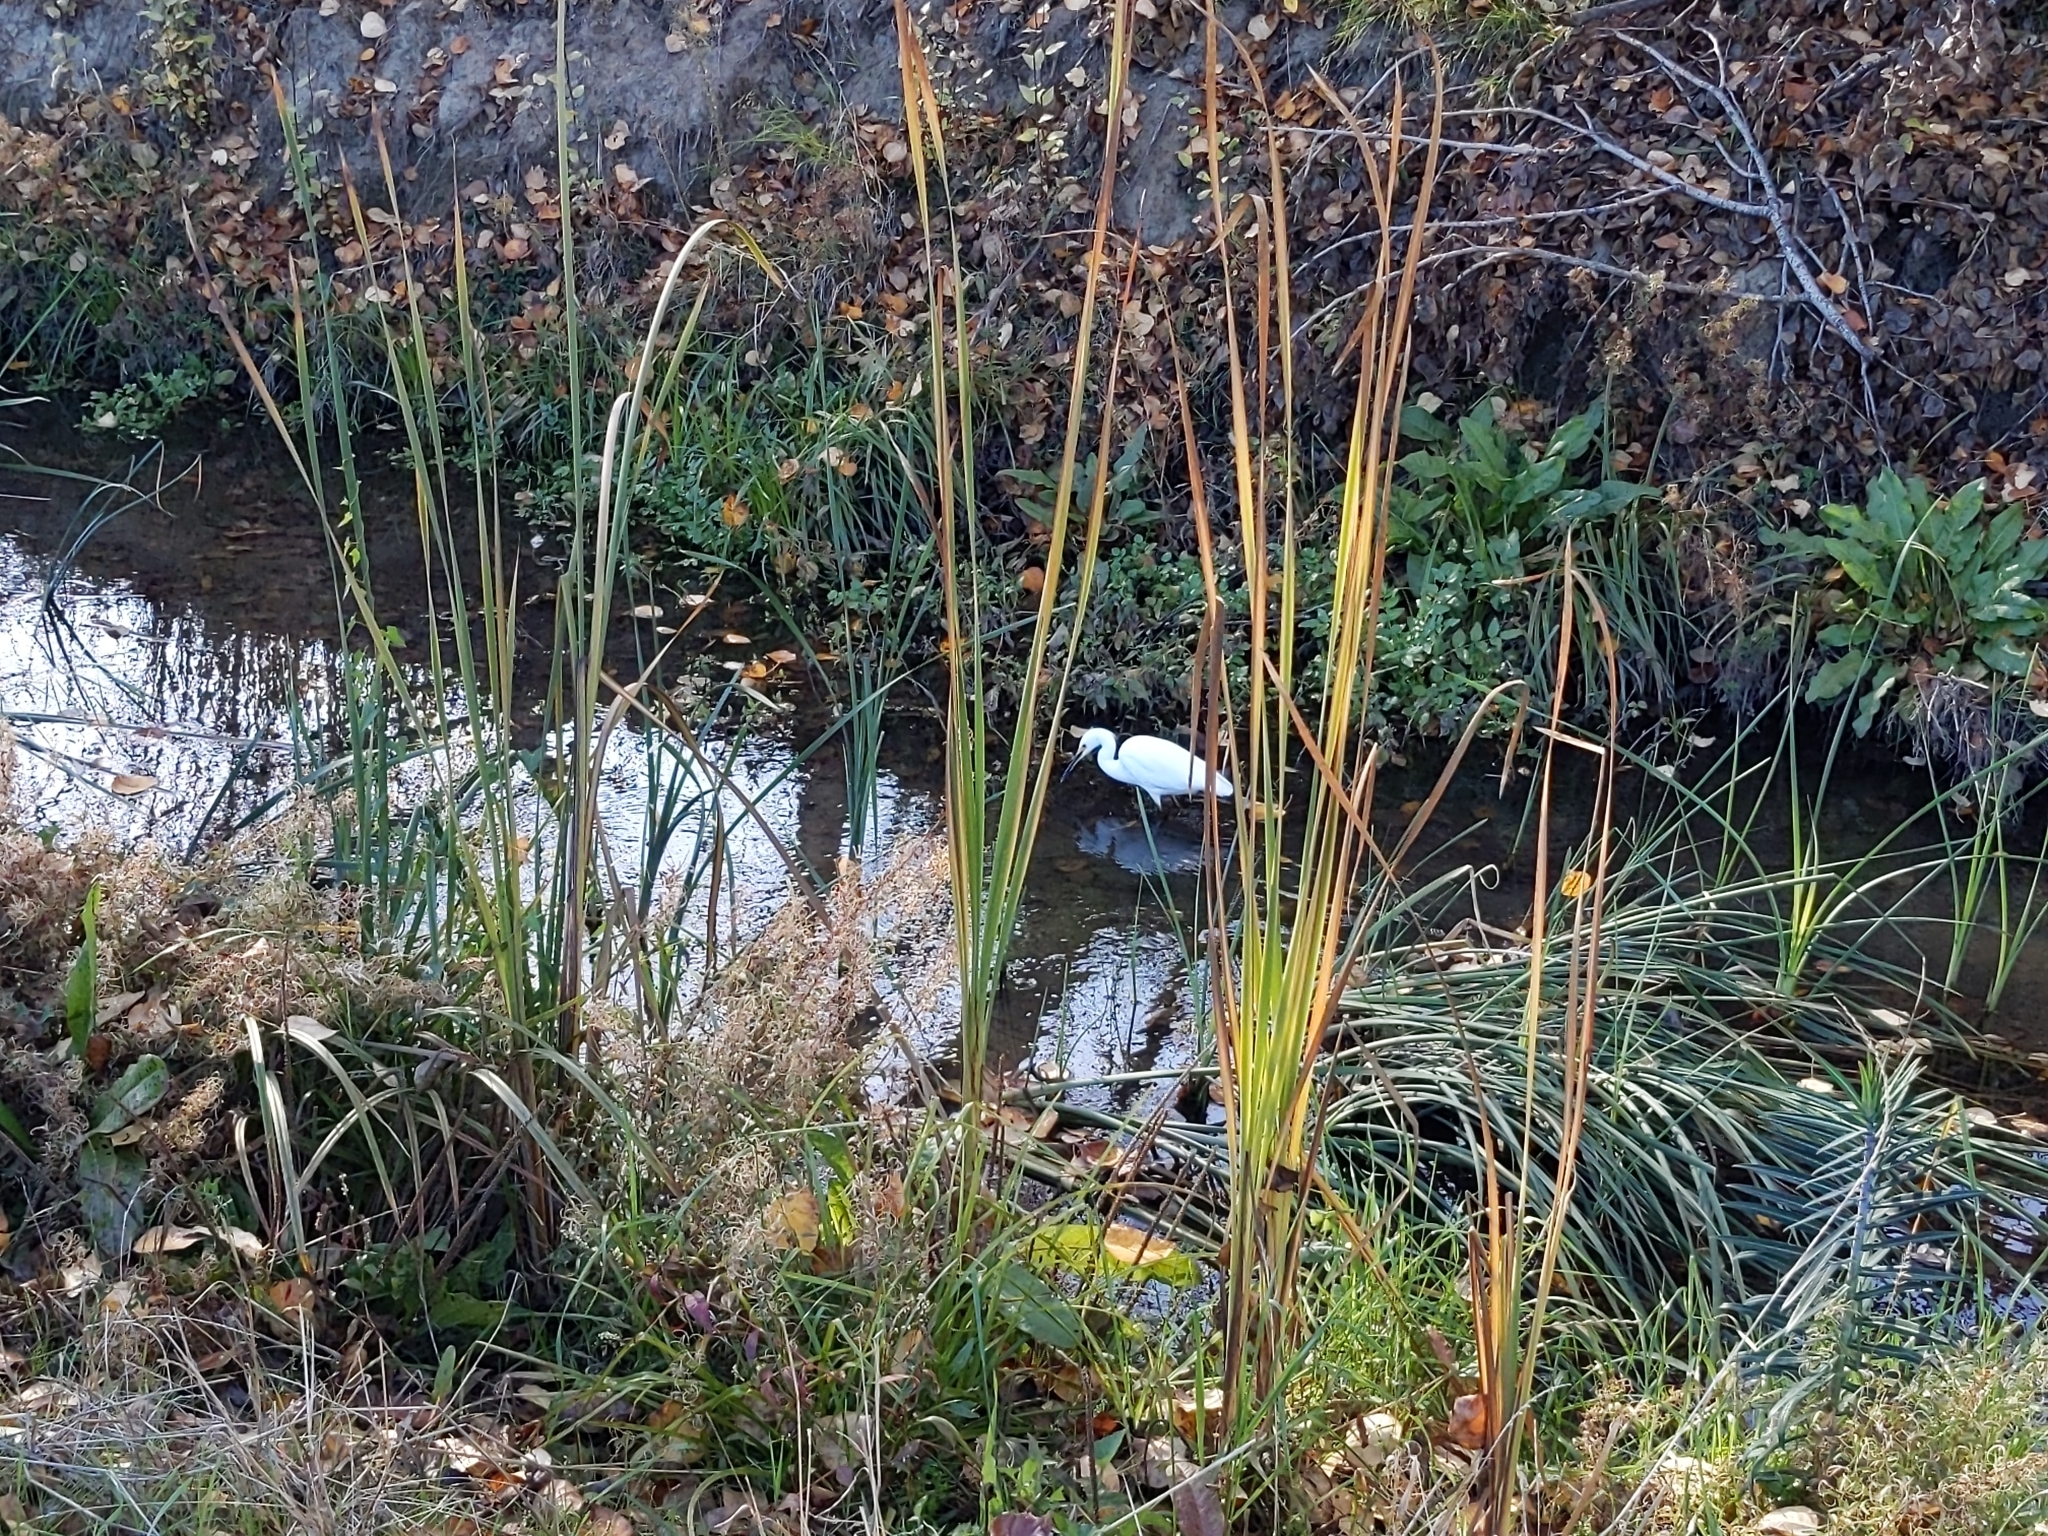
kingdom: Animalia
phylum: Chordata
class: Aves
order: Pelecaniformes
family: Ardeidae
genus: Egretta
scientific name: Egretta thula
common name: Snowy egret
